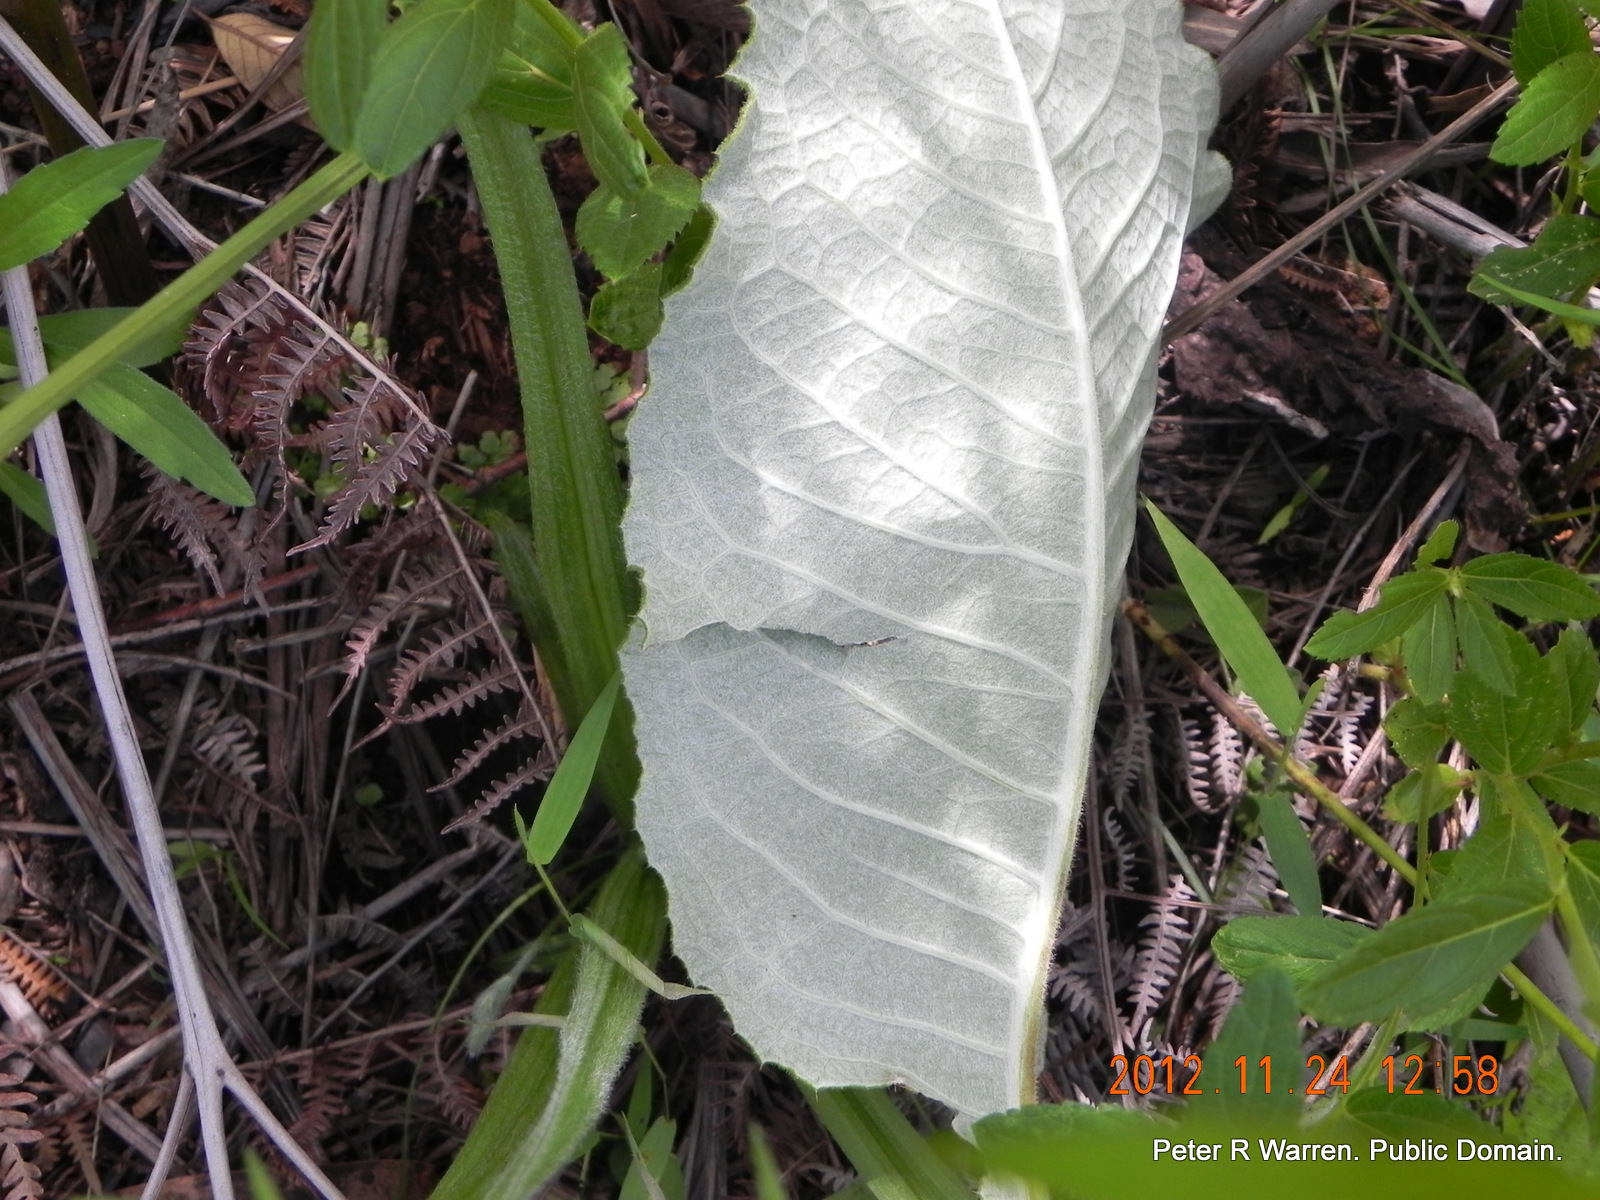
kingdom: Plantae
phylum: Tracheophyta
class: Magnoliopsida
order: Asterales
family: Asteraceae
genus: Berkheya
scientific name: Berkheya speciosa
